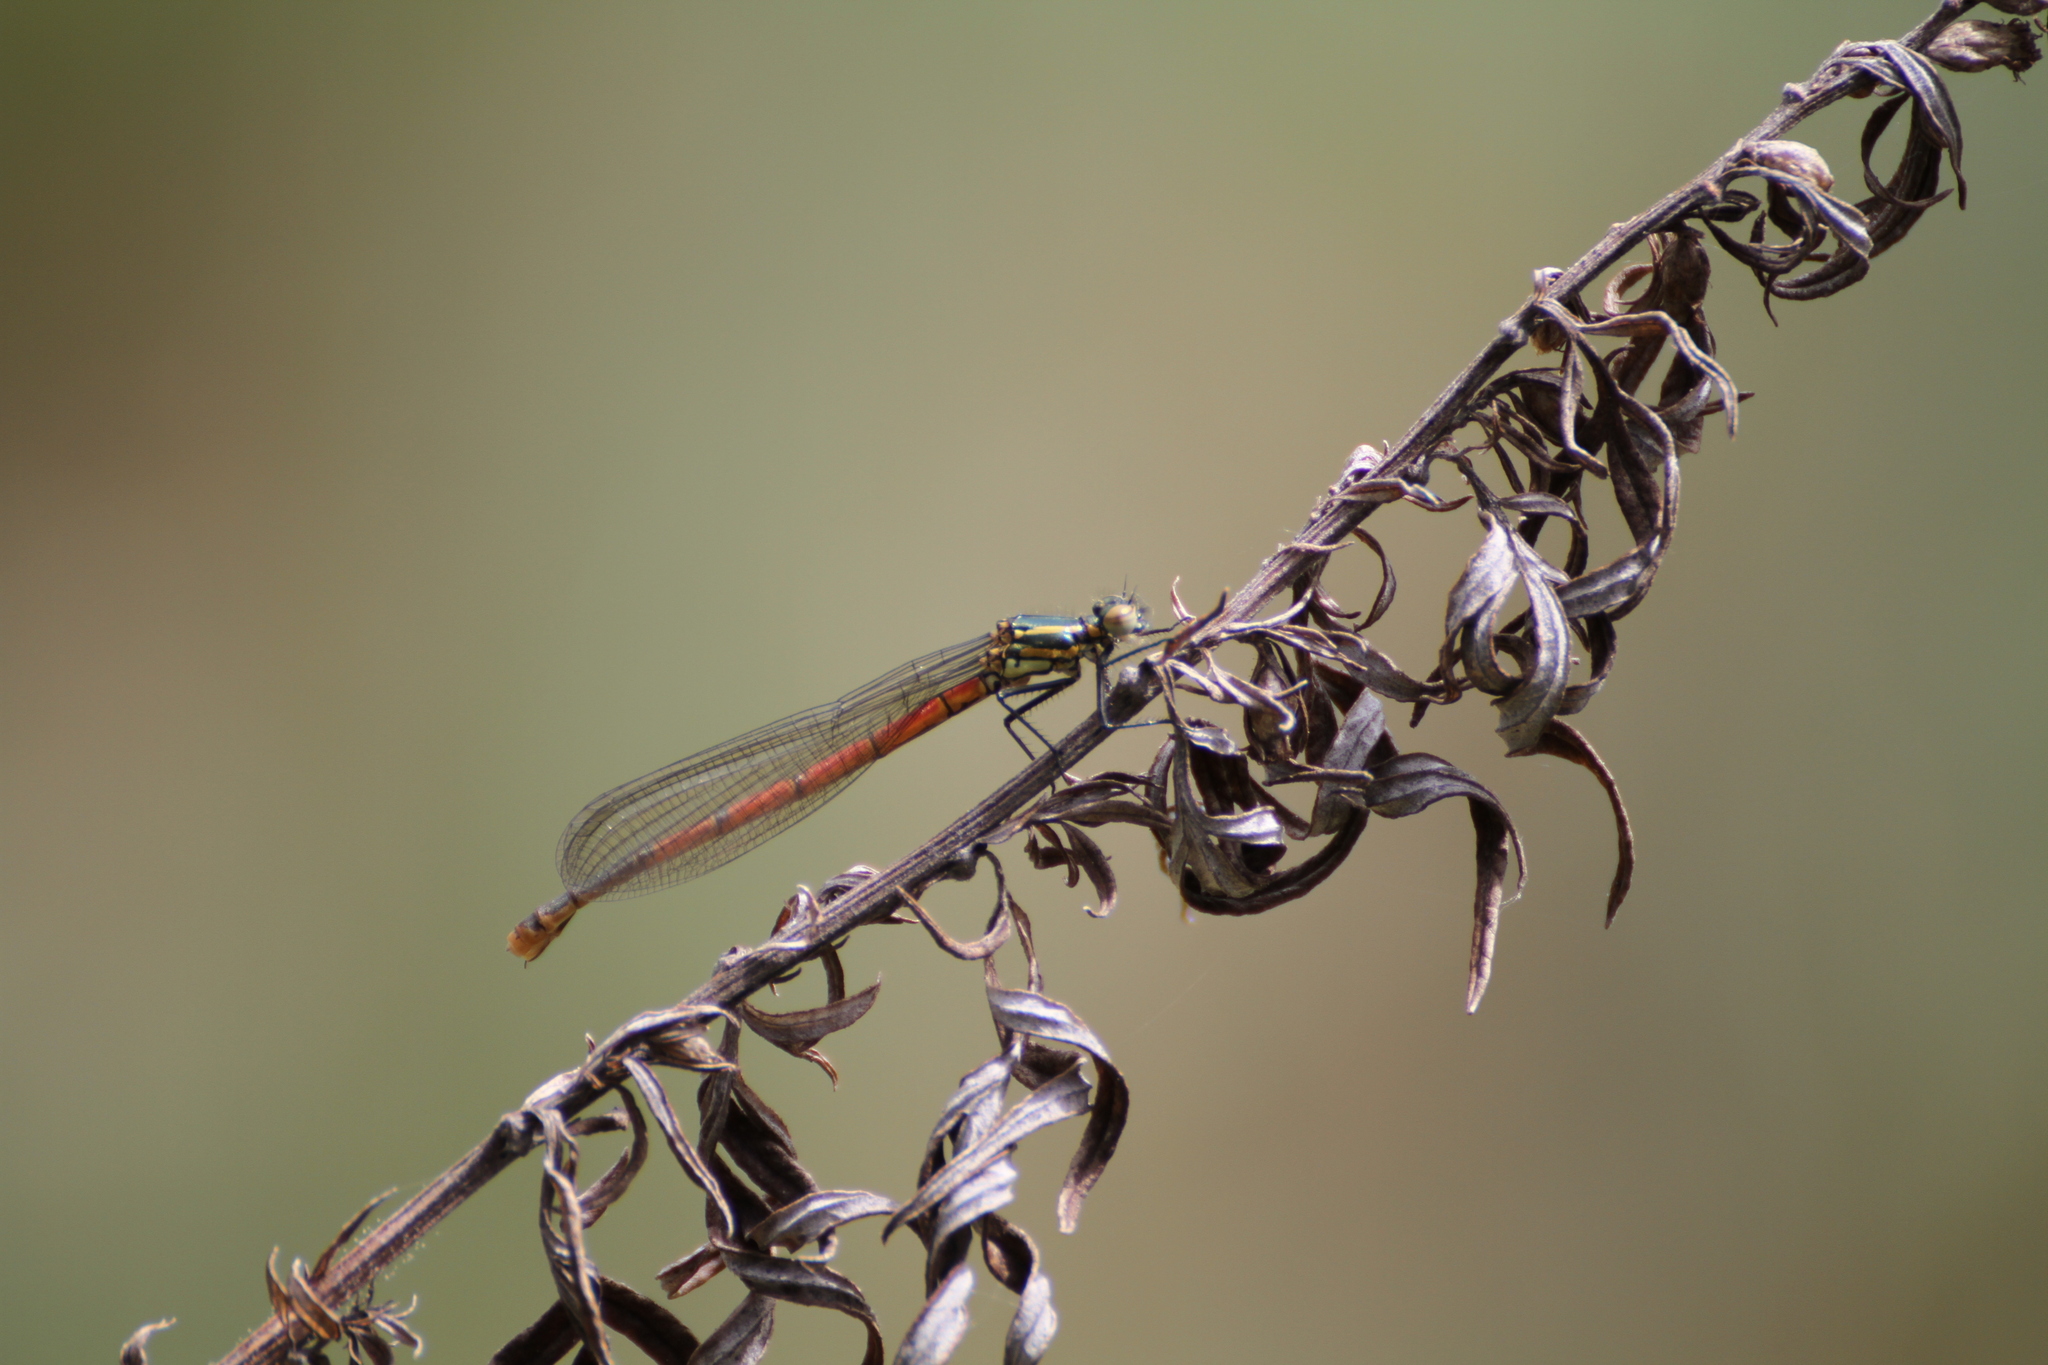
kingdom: Animalia
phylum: Arthropoda
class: Insecta
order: Odonata
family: Coenagrionidae
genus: Pyrrhosoma
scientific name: Pyrrhosoma nymphula
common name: Large red damsel
